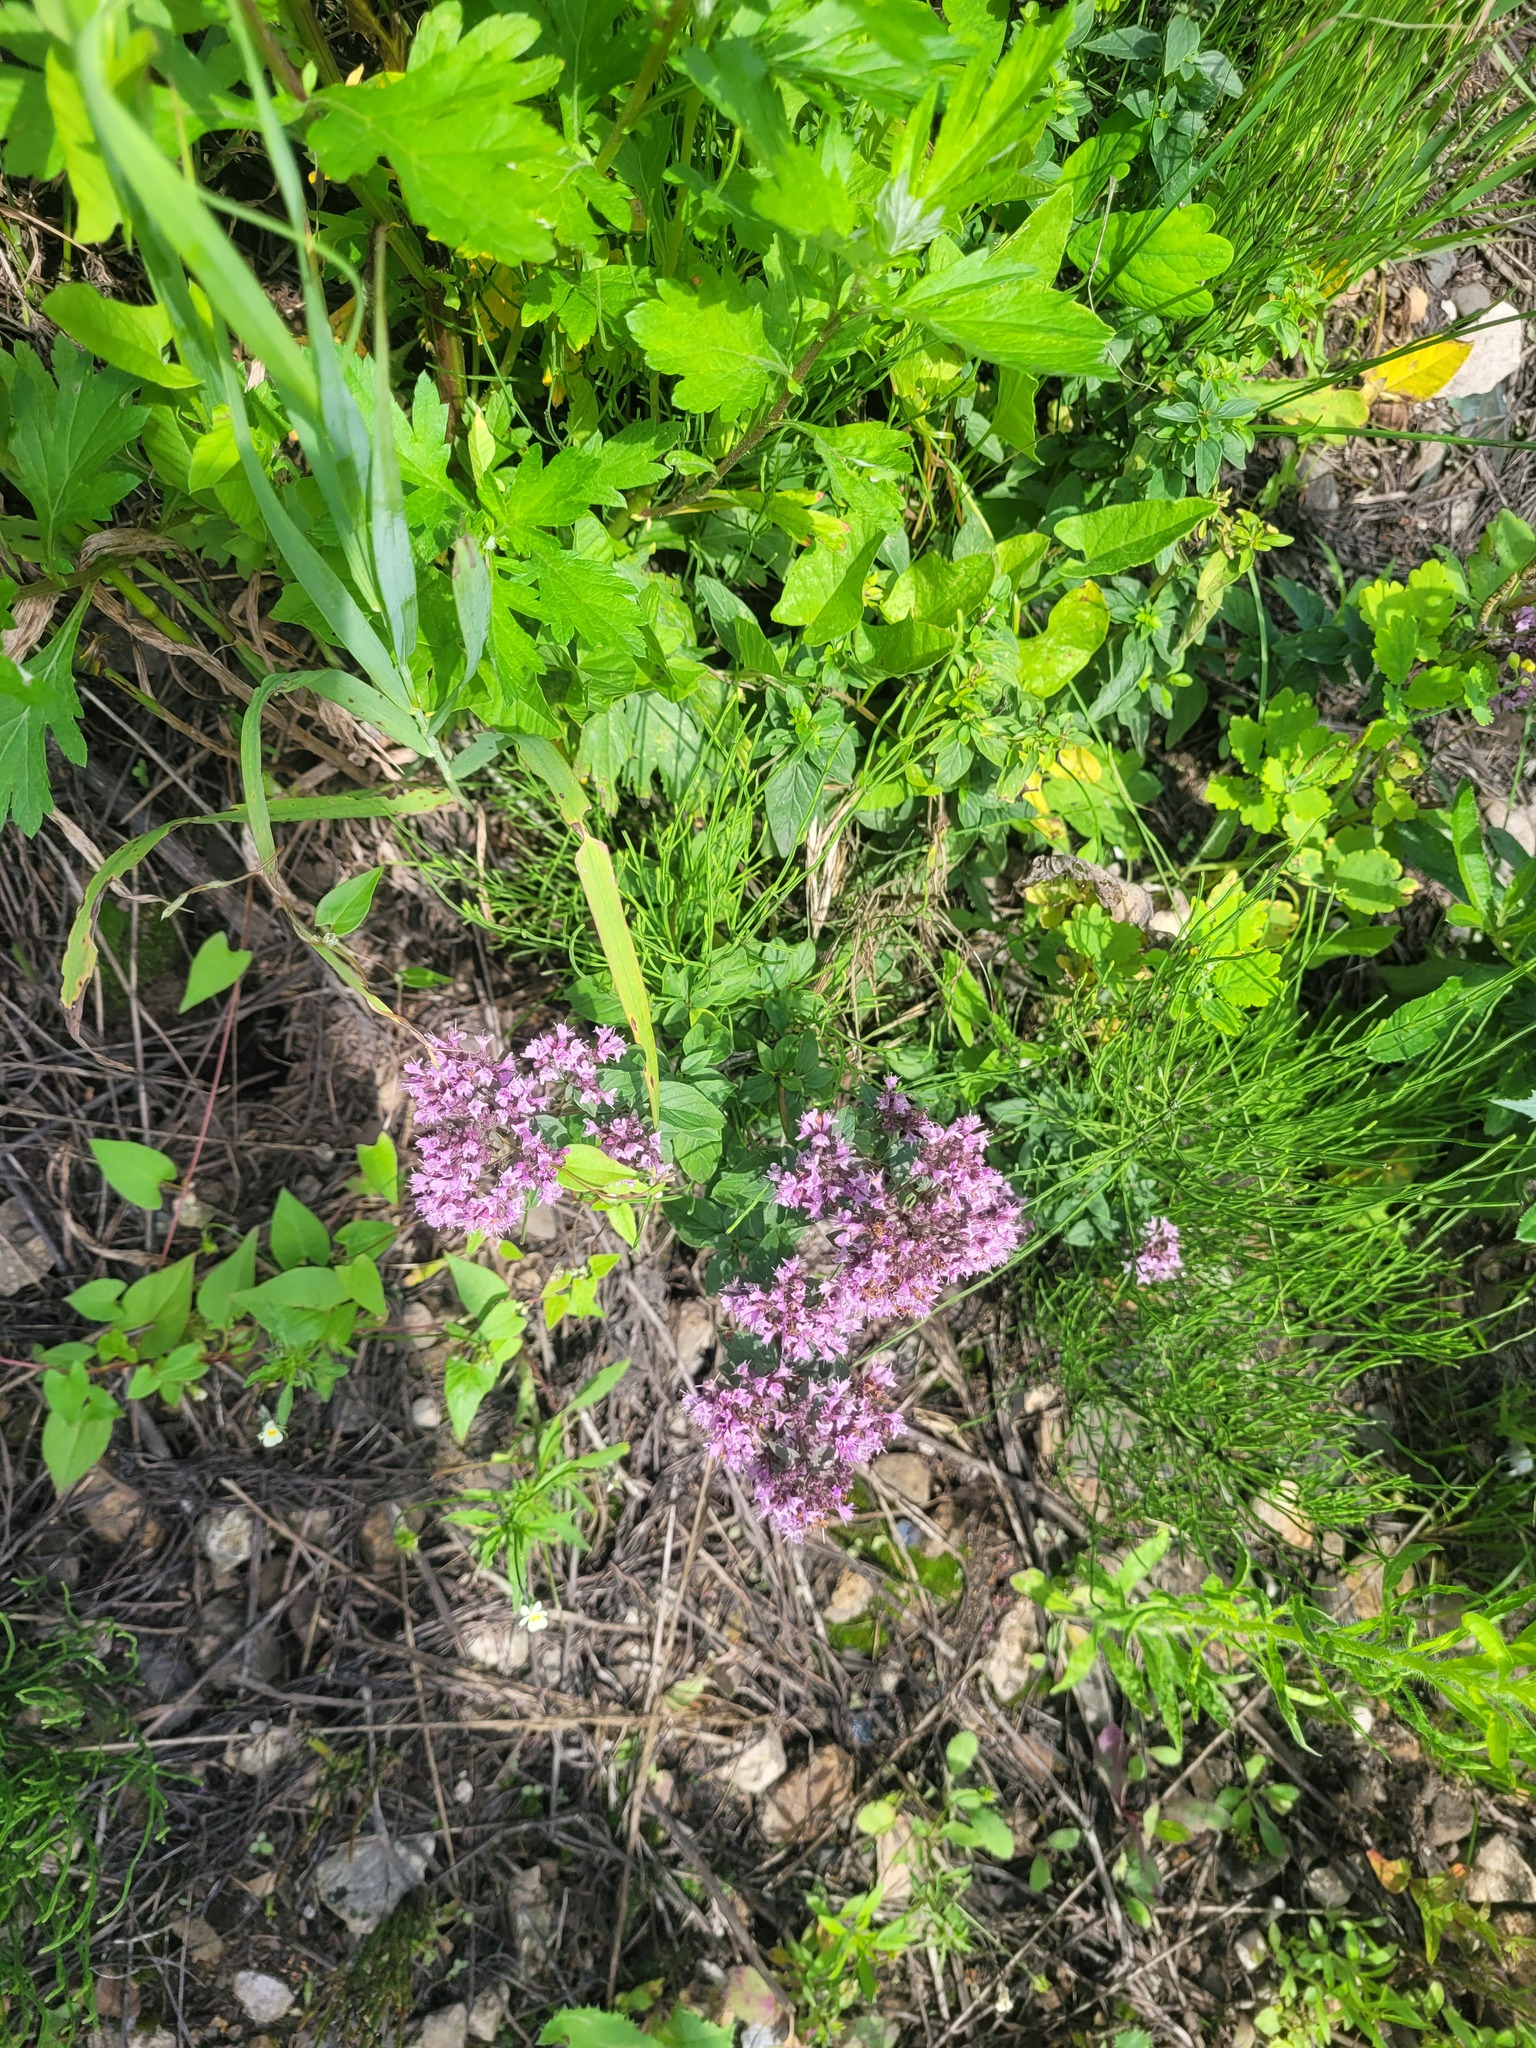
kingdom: Plantae
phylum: Tracheophyta
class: Magnoliopsida
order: Lamiales
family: Lamiaceae
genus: Origanum
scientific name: Origanum vulgare
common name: Wild marjoram
